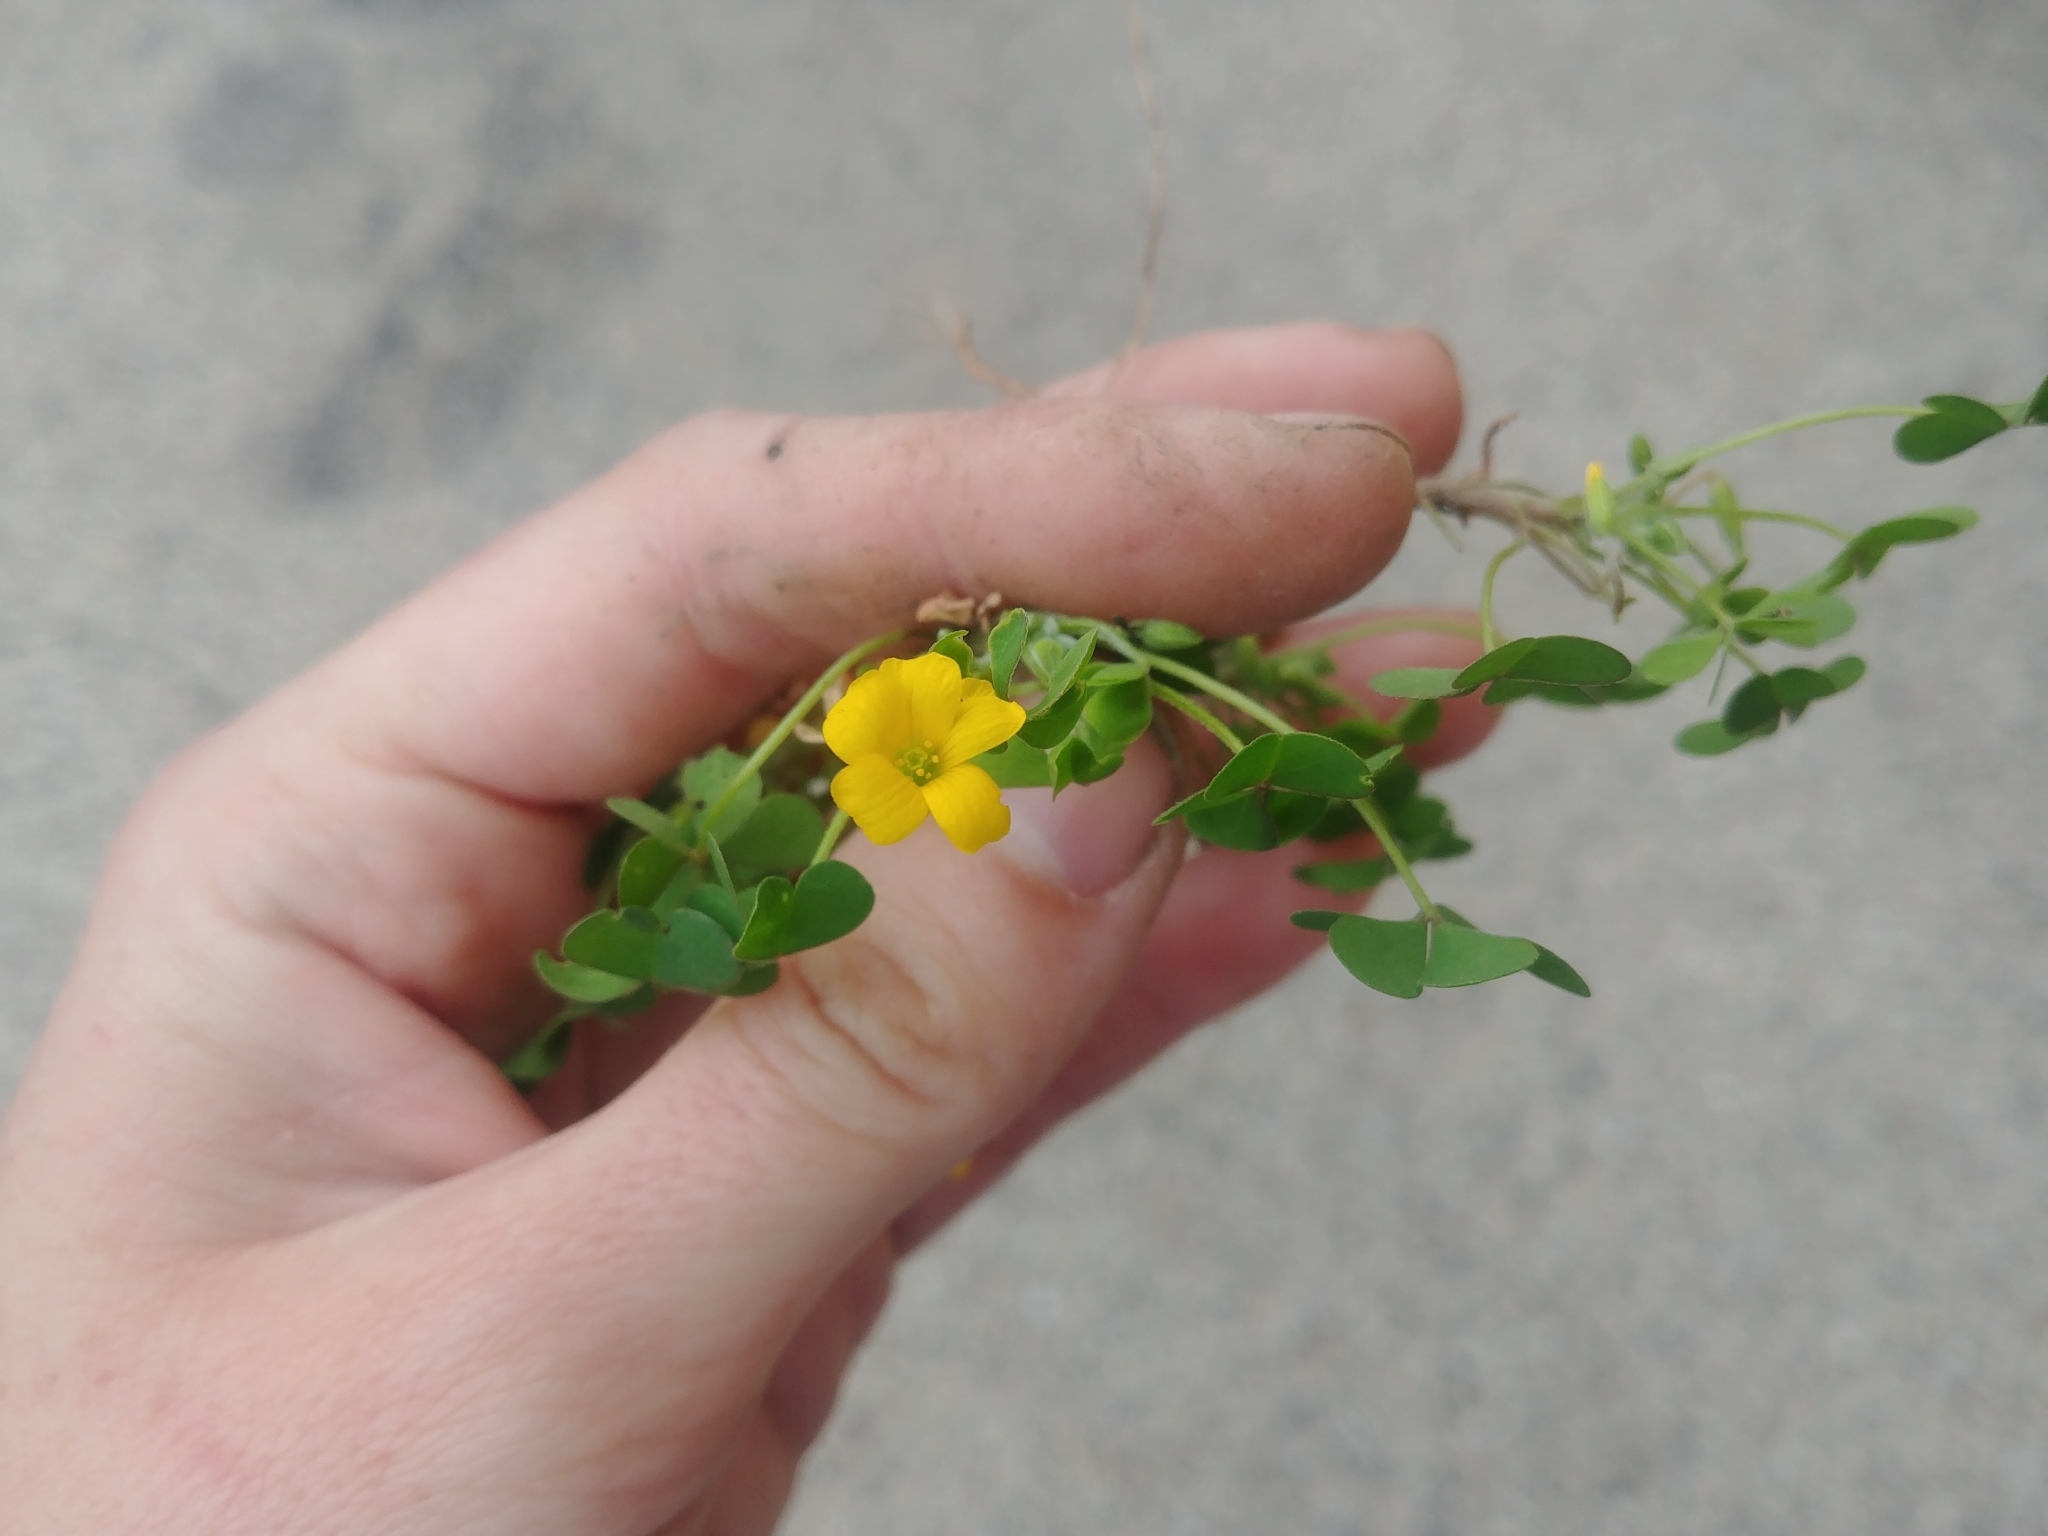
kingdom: Plantae
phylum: Tracheophyta
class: Magnoliopsida
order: Oxalidales
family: Oxalidaceae
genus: Oxalis
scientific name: Oxalis corniculata
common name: Procumbent yellow-sorrel
